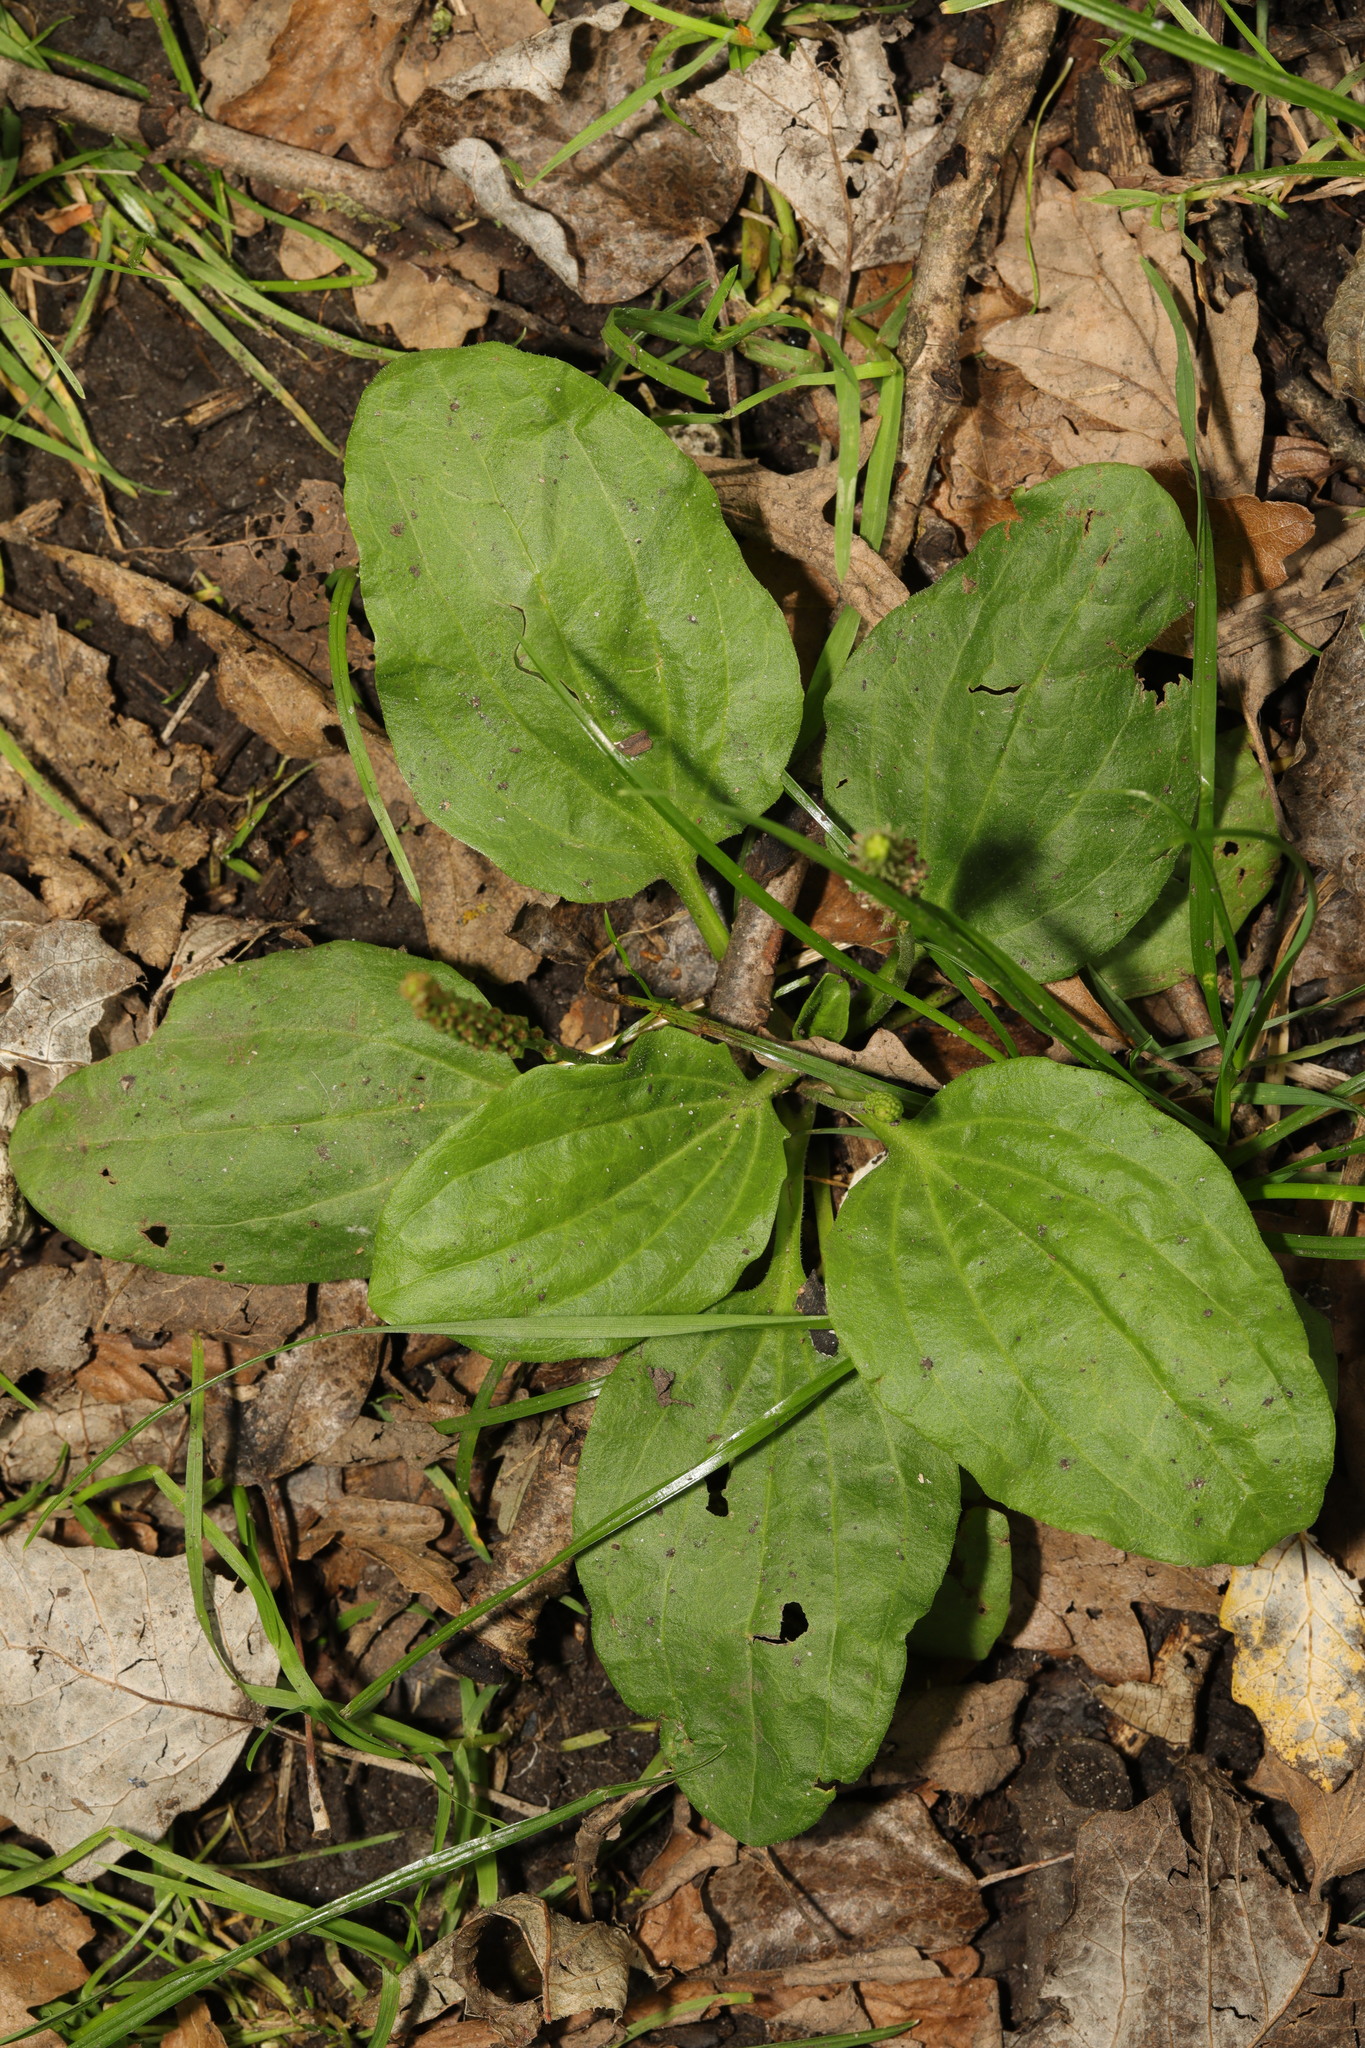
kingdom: Plantae
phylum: Tracheophyta
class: Magnoliopsida
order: Lamiales
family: Plantaginaceae
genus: Plantago
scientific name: Plantago major
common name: Common plantain
